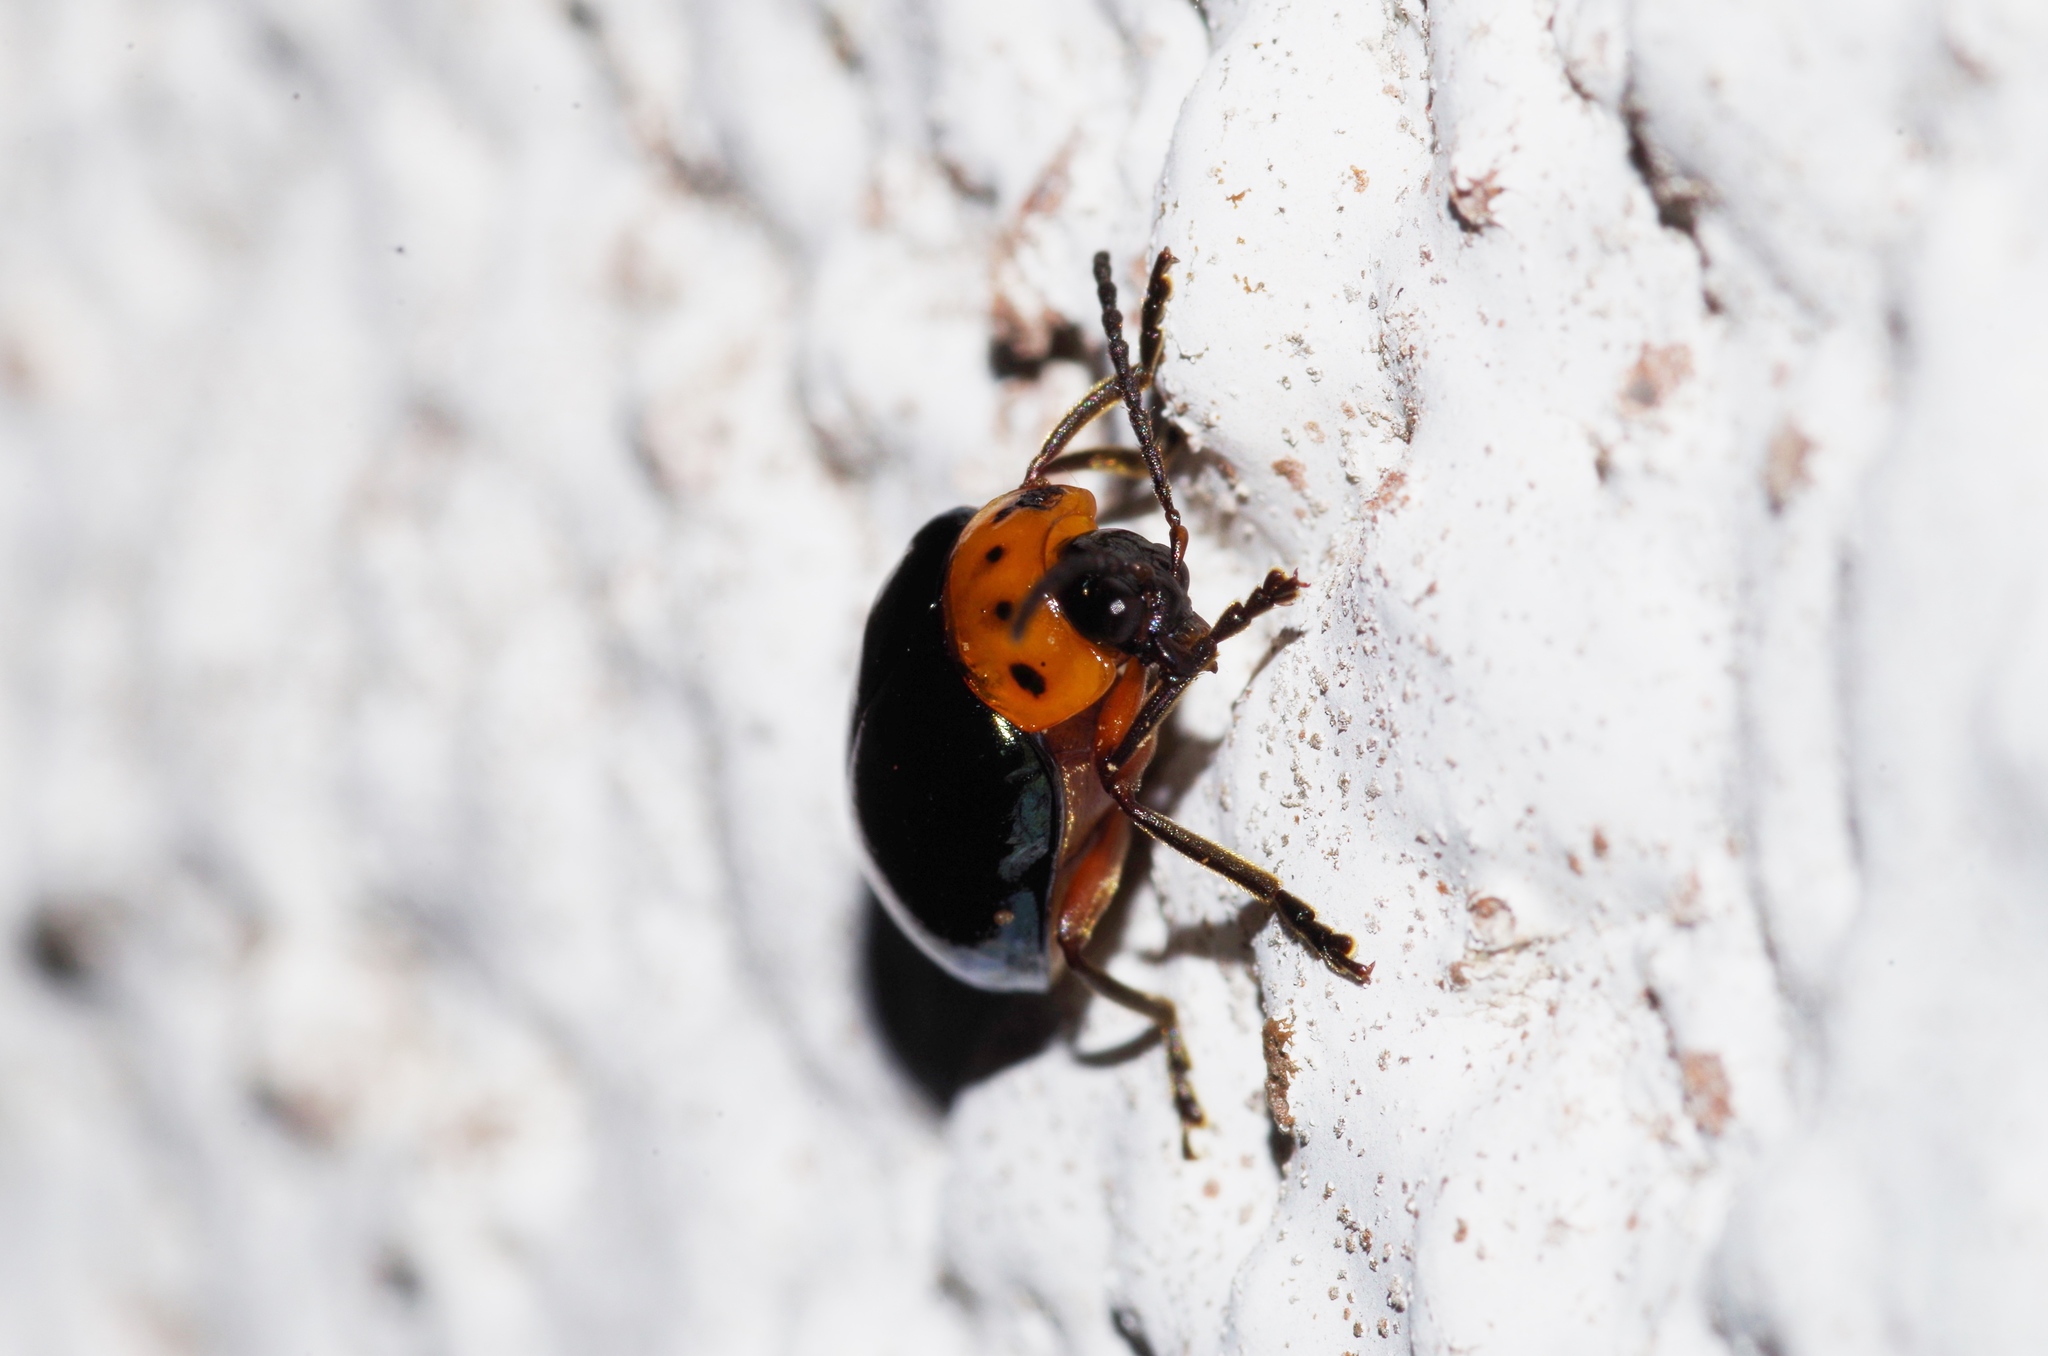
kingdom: Animalia
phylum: Arthropoda
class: Insecta
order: Coleoptera
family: Chrysomelidae
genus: Morphosphaera
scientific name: Morphosphaera caerulea
